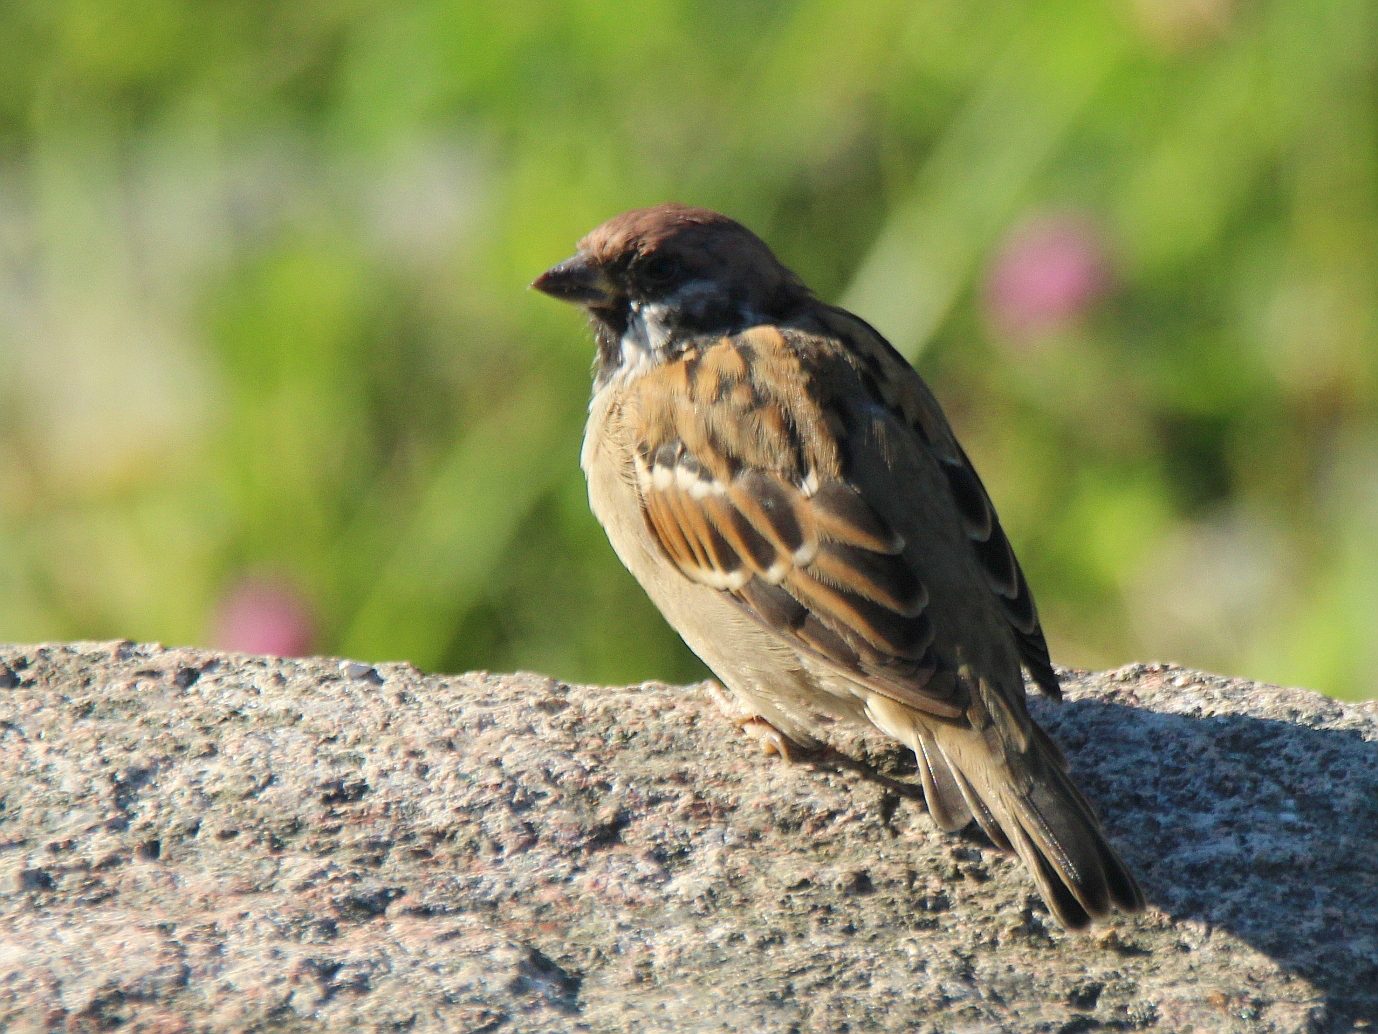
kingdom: Animalia
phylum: Chordata
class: Aves
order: Passeriformes
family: Passeridae
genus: Passer
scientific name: Passer montanus
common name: Eurasian tree sparrow
